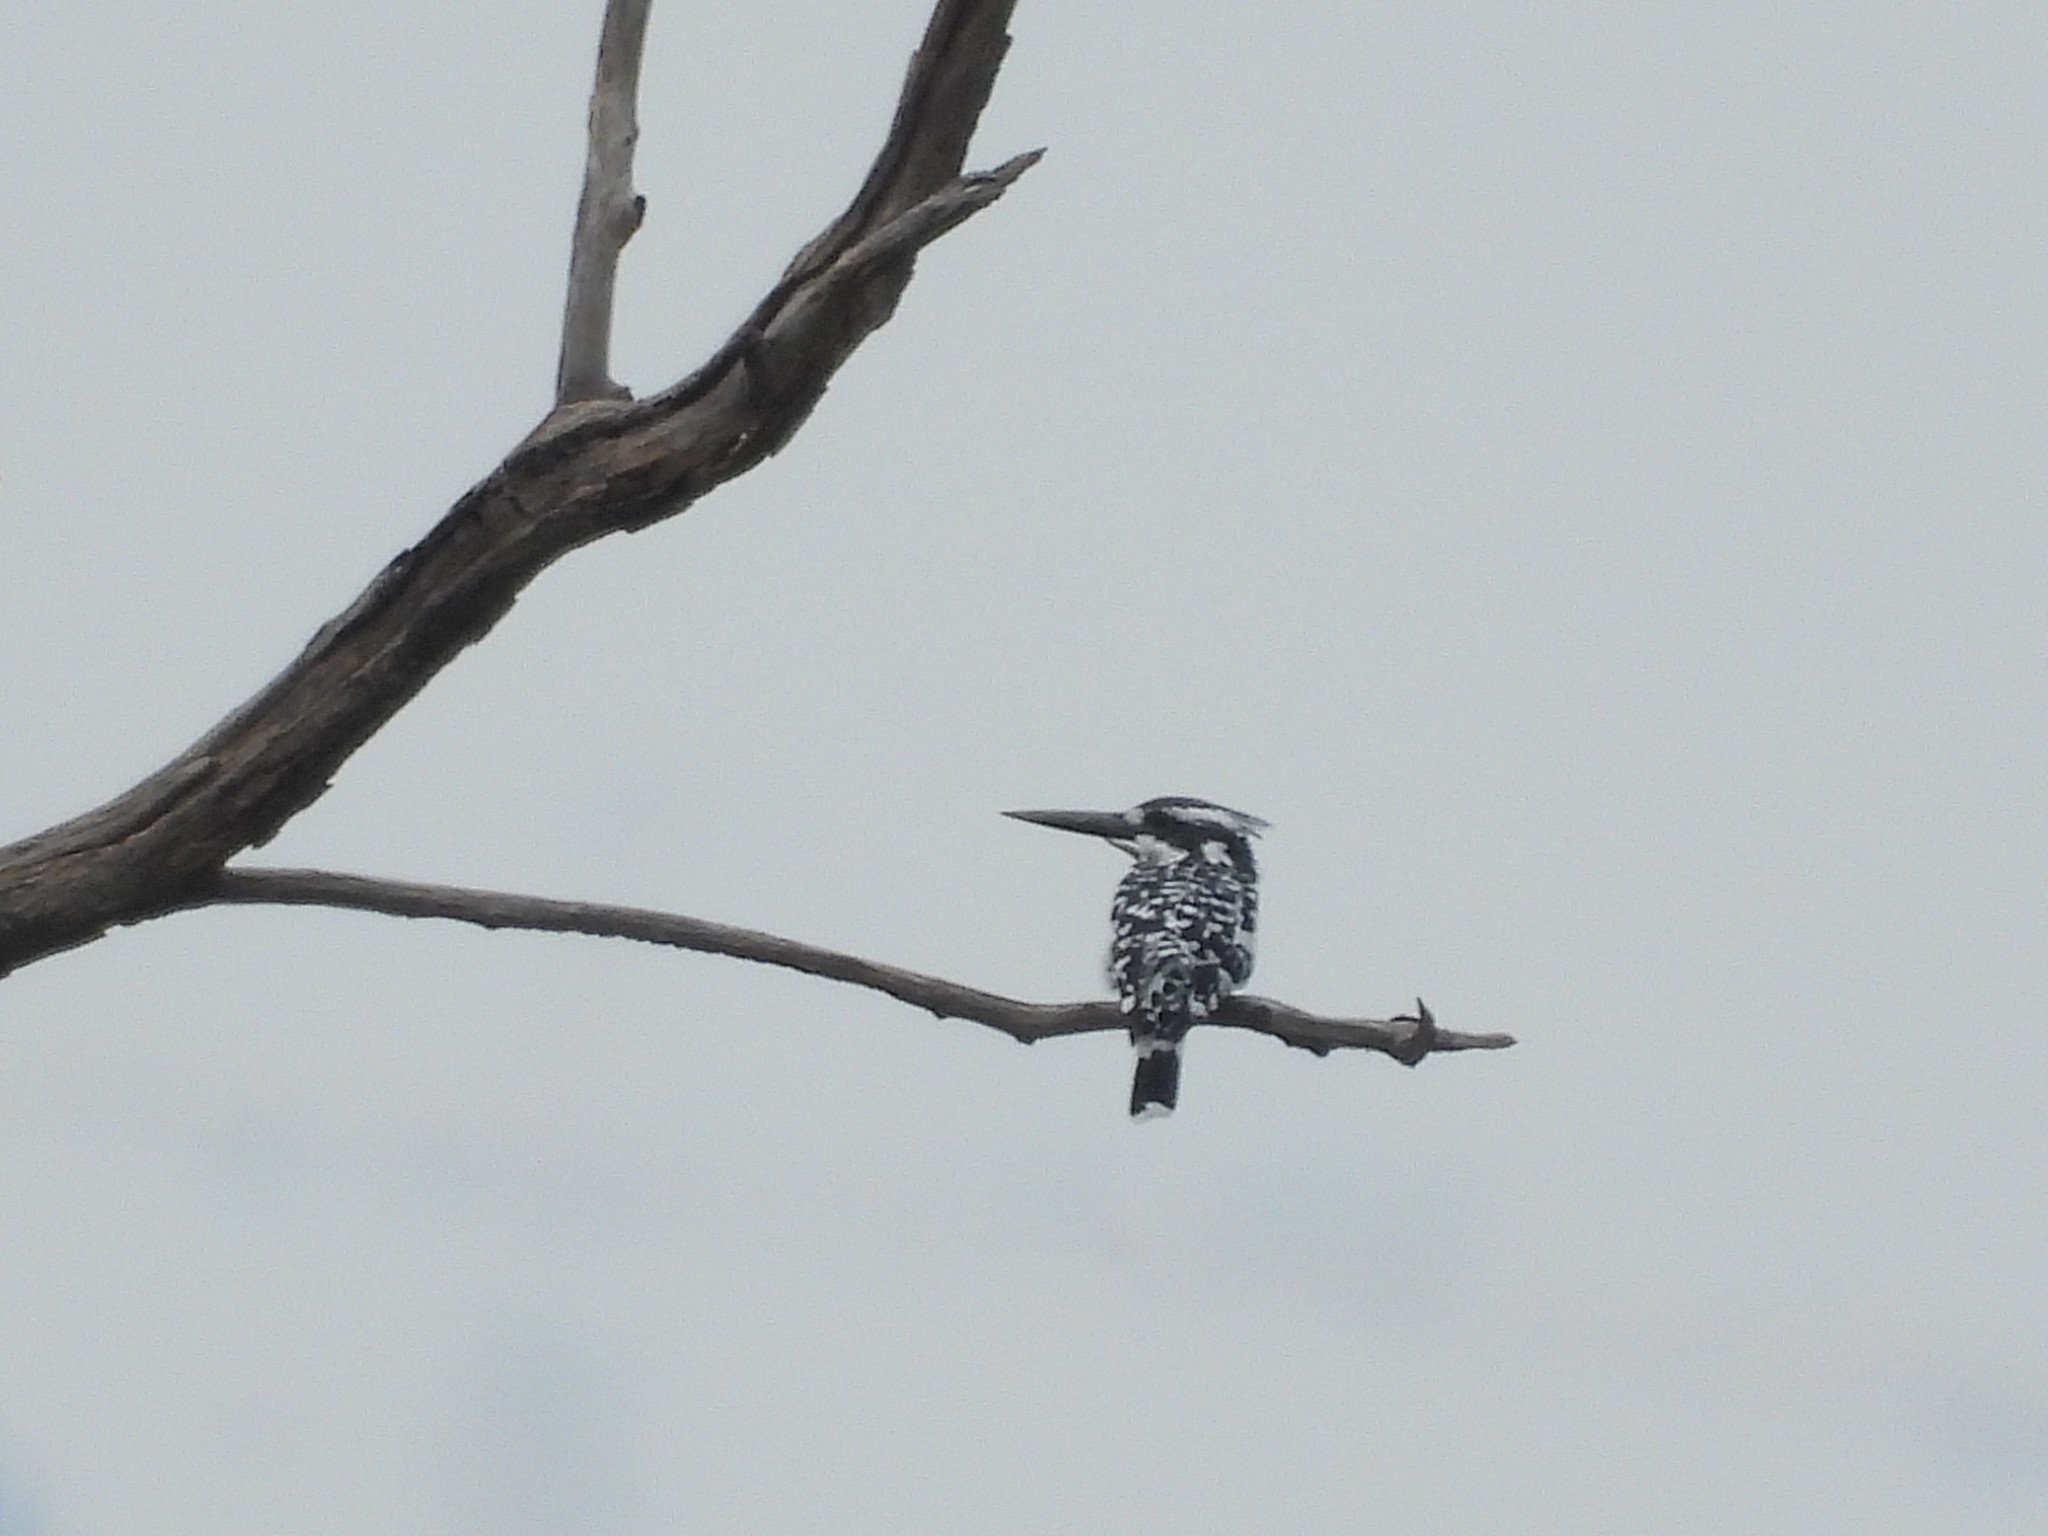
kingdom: Animalia
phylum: Chordata
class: Aves
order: Coraciiformes
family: Alcedinidae
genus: Ceryle
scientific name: Ceryle rudis
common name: Pied kingfisher
